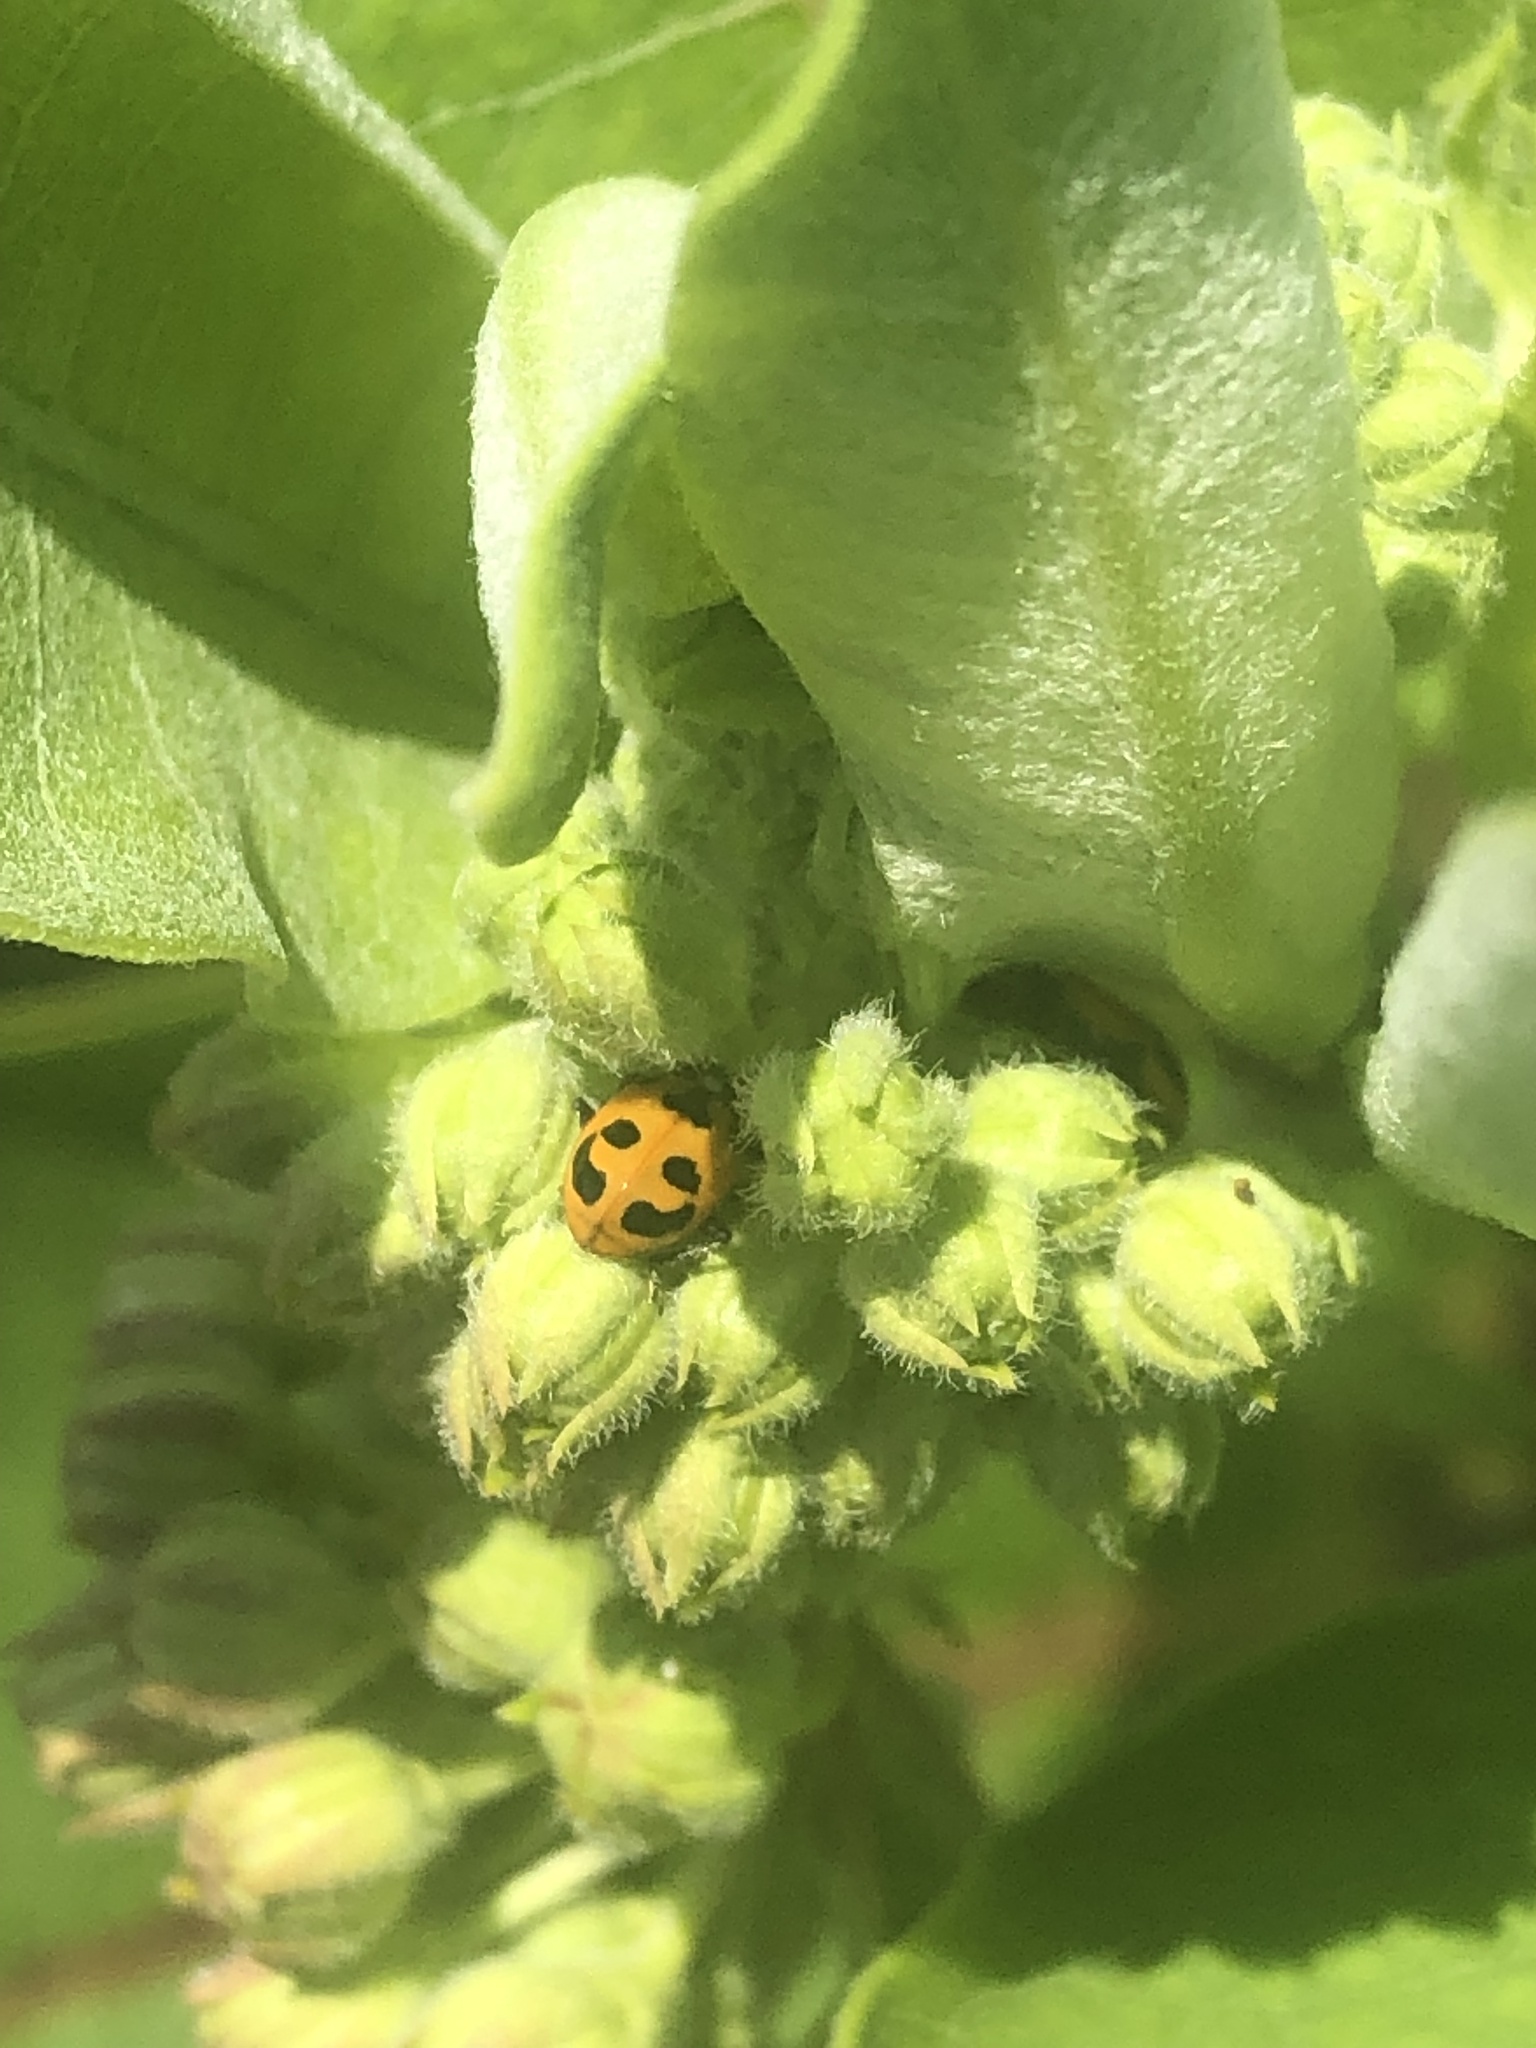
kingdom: Animalia
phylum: Arthropoda
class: Insecta
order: Coleoptera
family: Coccinellidae
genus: Hippodamia
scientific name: Hippodamia parenthesis
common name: Parenthesis lady beetle
